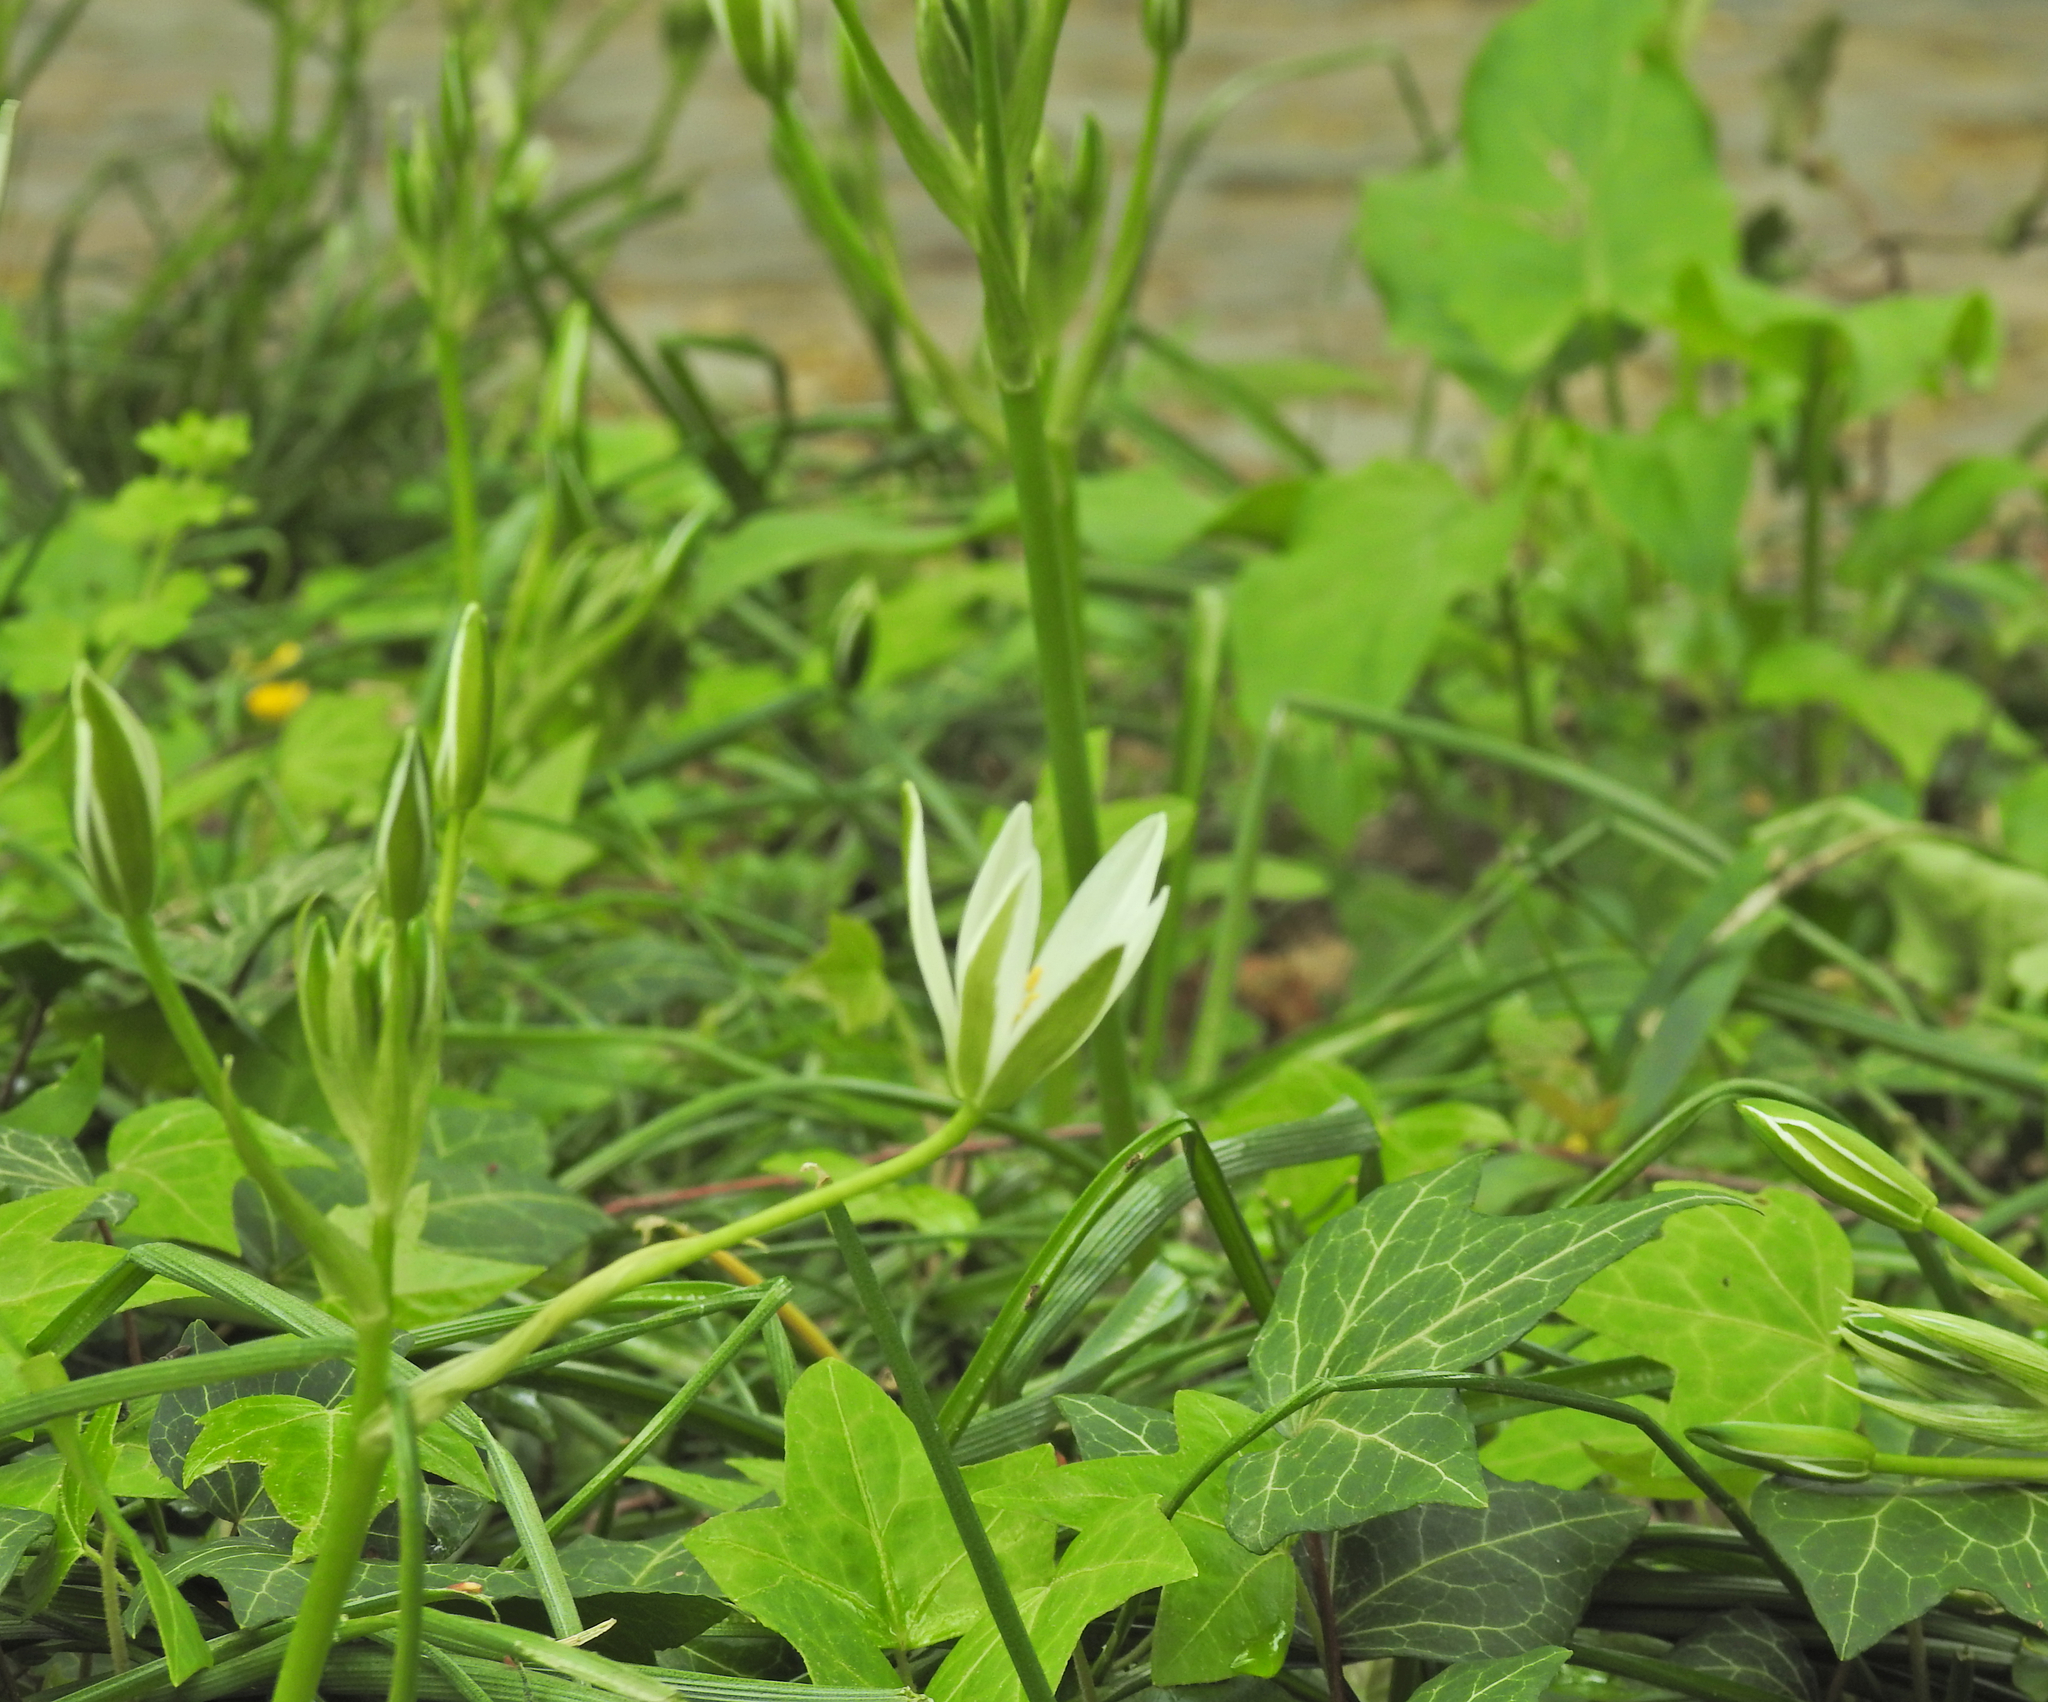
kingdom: Plantae
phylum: Tracheophyta
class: Liliopsida
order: Asparagales
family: Asparagaceae
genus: Ornithogalum
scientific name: Ornithogalum umbellatum
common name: Garden star-of-bethlehem
